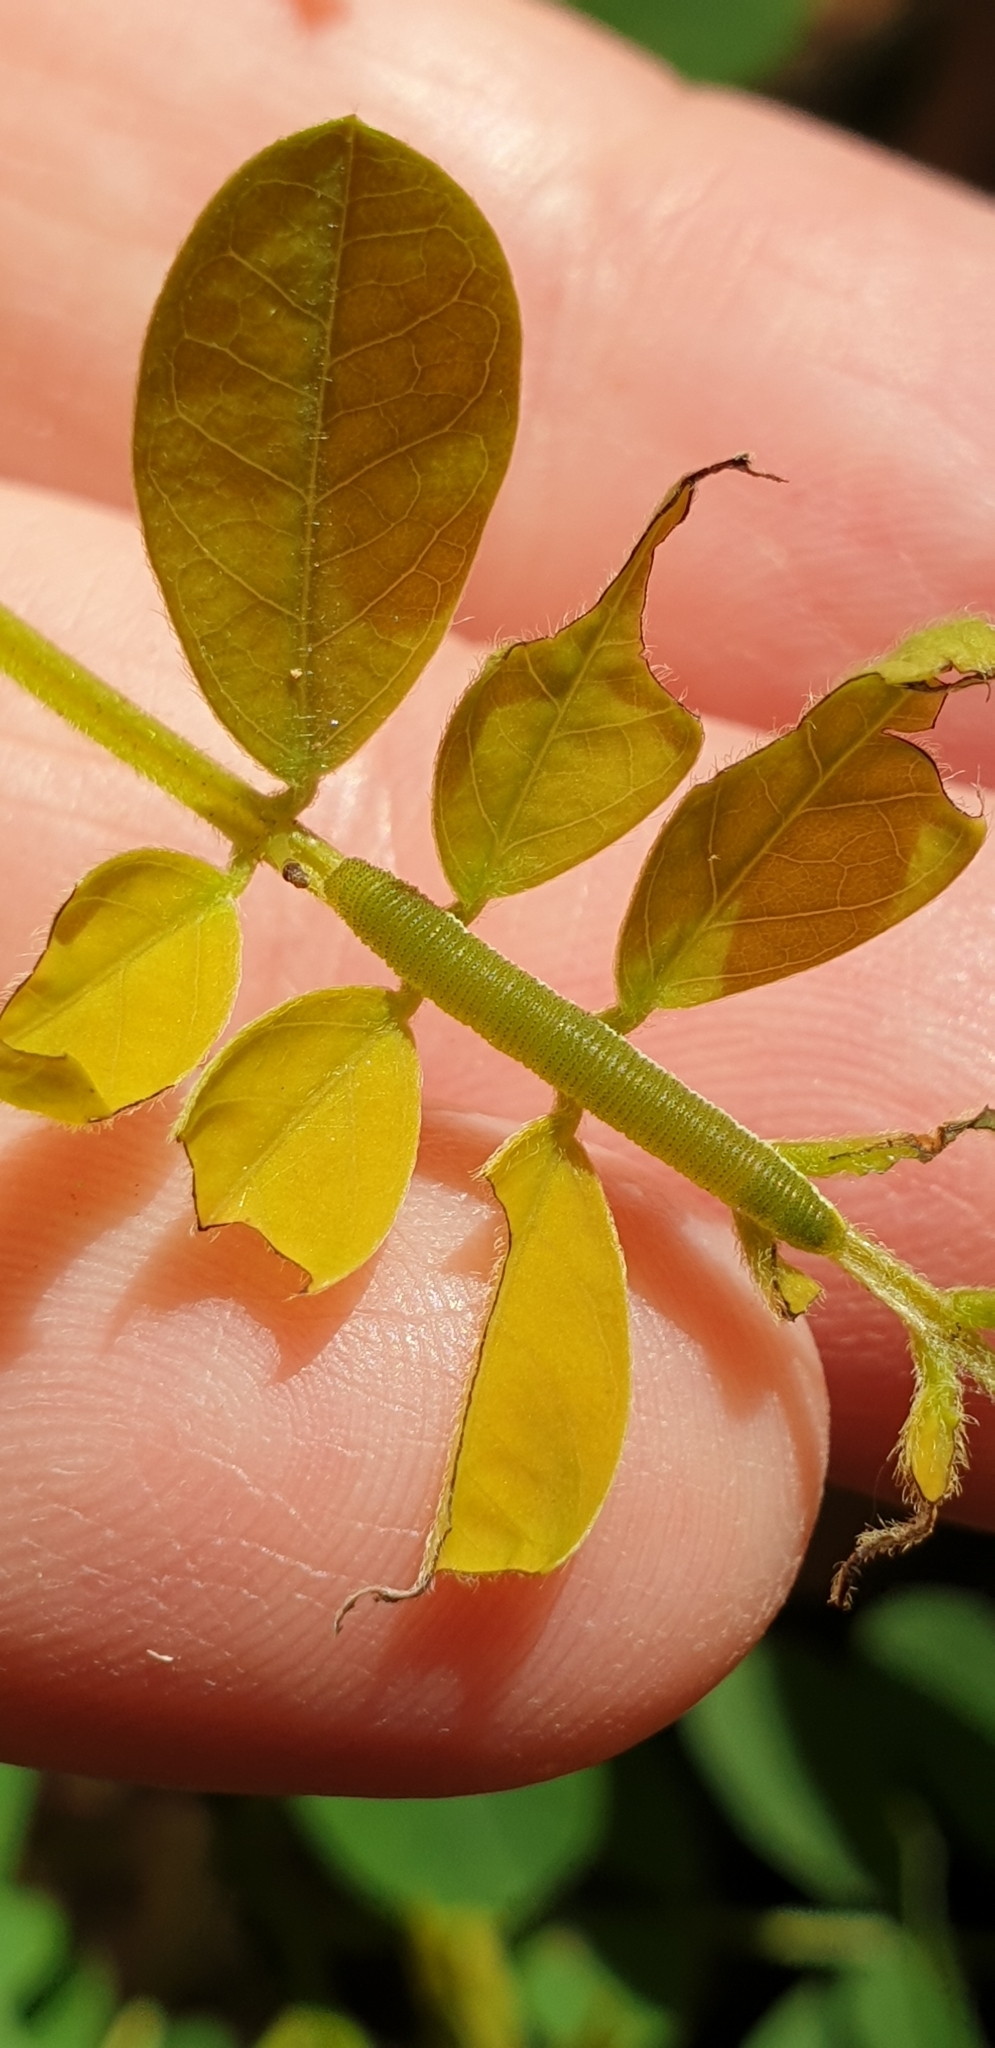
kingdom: Animalia
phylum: Arthropoda
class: Insecta
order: Lepidoptera
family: Pieridae
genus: Catopsilia
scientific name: Catopsilia pomona
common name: Common emigrant
